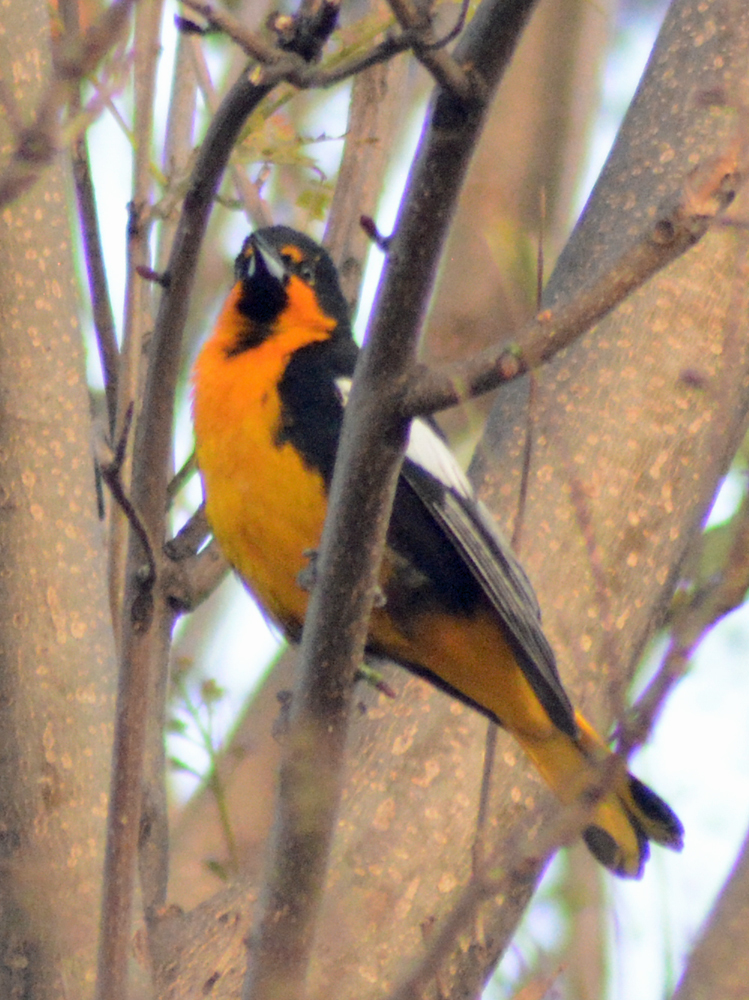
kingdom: Animalia
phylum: Chordata
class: Aves
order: Passeriformes
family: Icteridae
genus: Icterus
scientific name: Icterus abeillei
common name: Black-backed oriole
